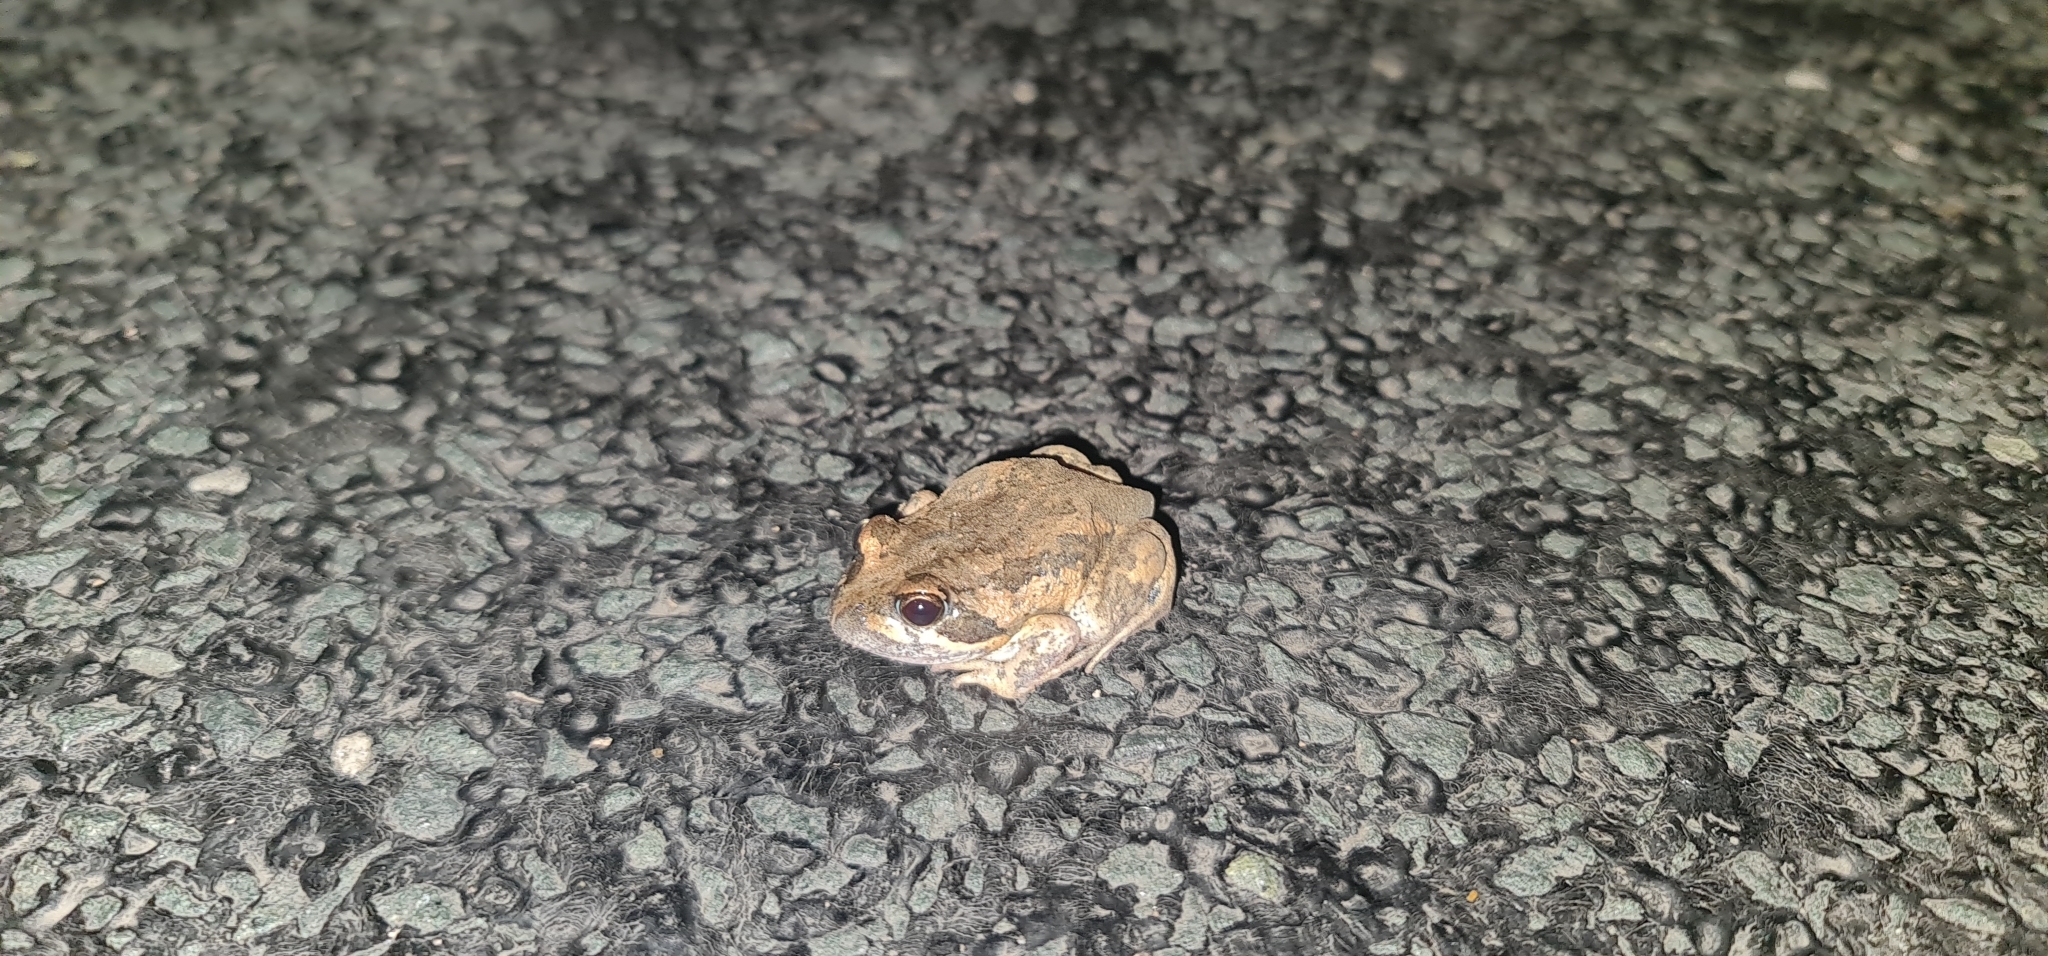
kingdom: Animalia
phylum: Chordata
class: Amphibia
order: Anura
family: Limnodynastidae
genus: Limnodynastes
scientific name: Limnodynastes dumerilii
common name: Banjo frog
